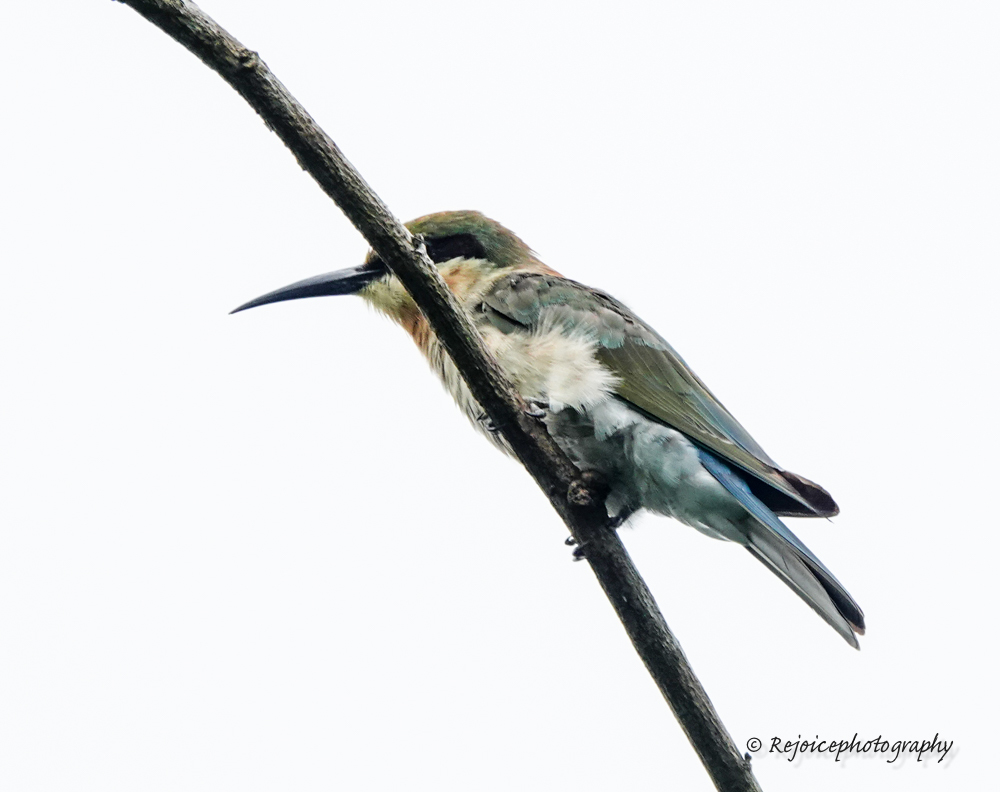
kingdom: Animalia
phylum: Chordata
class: Aves
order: Coraciiformes
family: Meropidae
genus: Merops
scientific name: Merops philippinus
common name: Blue-tailed bee-eater
